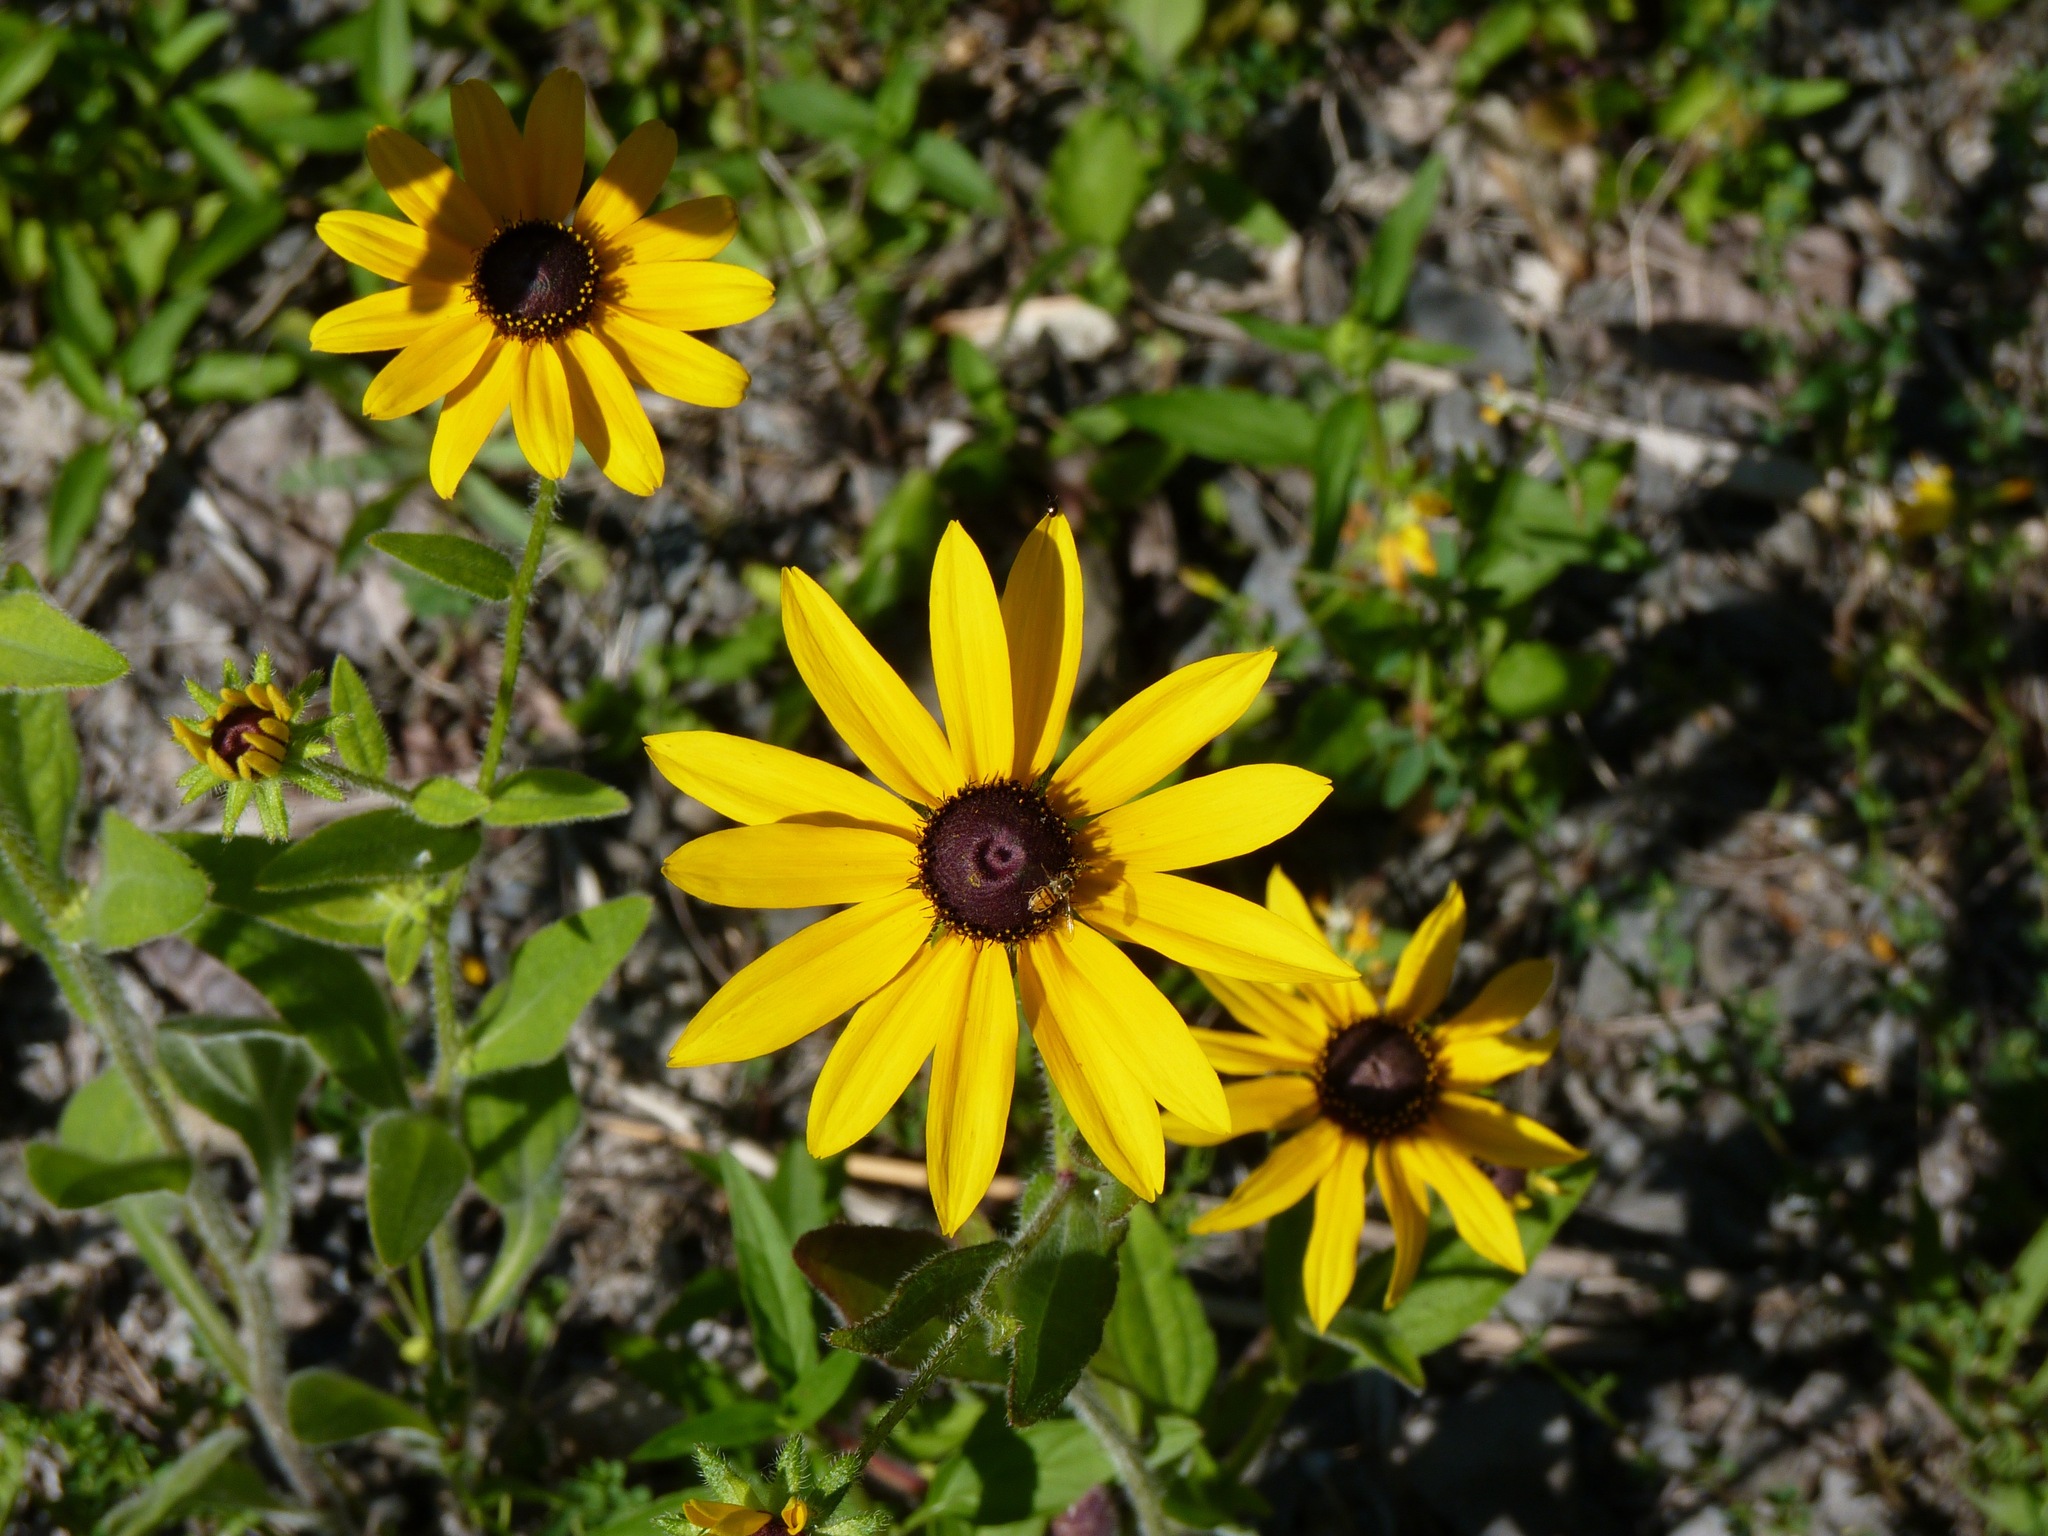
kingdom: Plantae
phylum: Tracheophyta
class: Magnoliopsida
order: Asterales
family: Asteraceae
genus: Rudbeckia
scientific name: Rudbeckia hirta
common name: Black-eyed-susan
